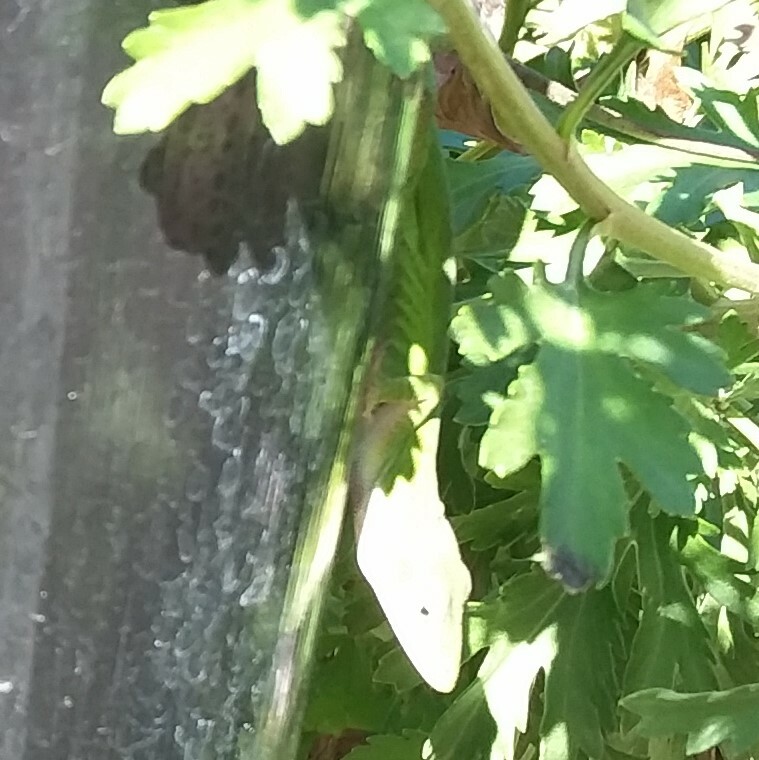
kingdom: Animalia
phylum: Chordata
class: Squamata
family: Dactyloidae
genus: Anolis
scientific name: Anolis carolinensis
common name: Green anole
